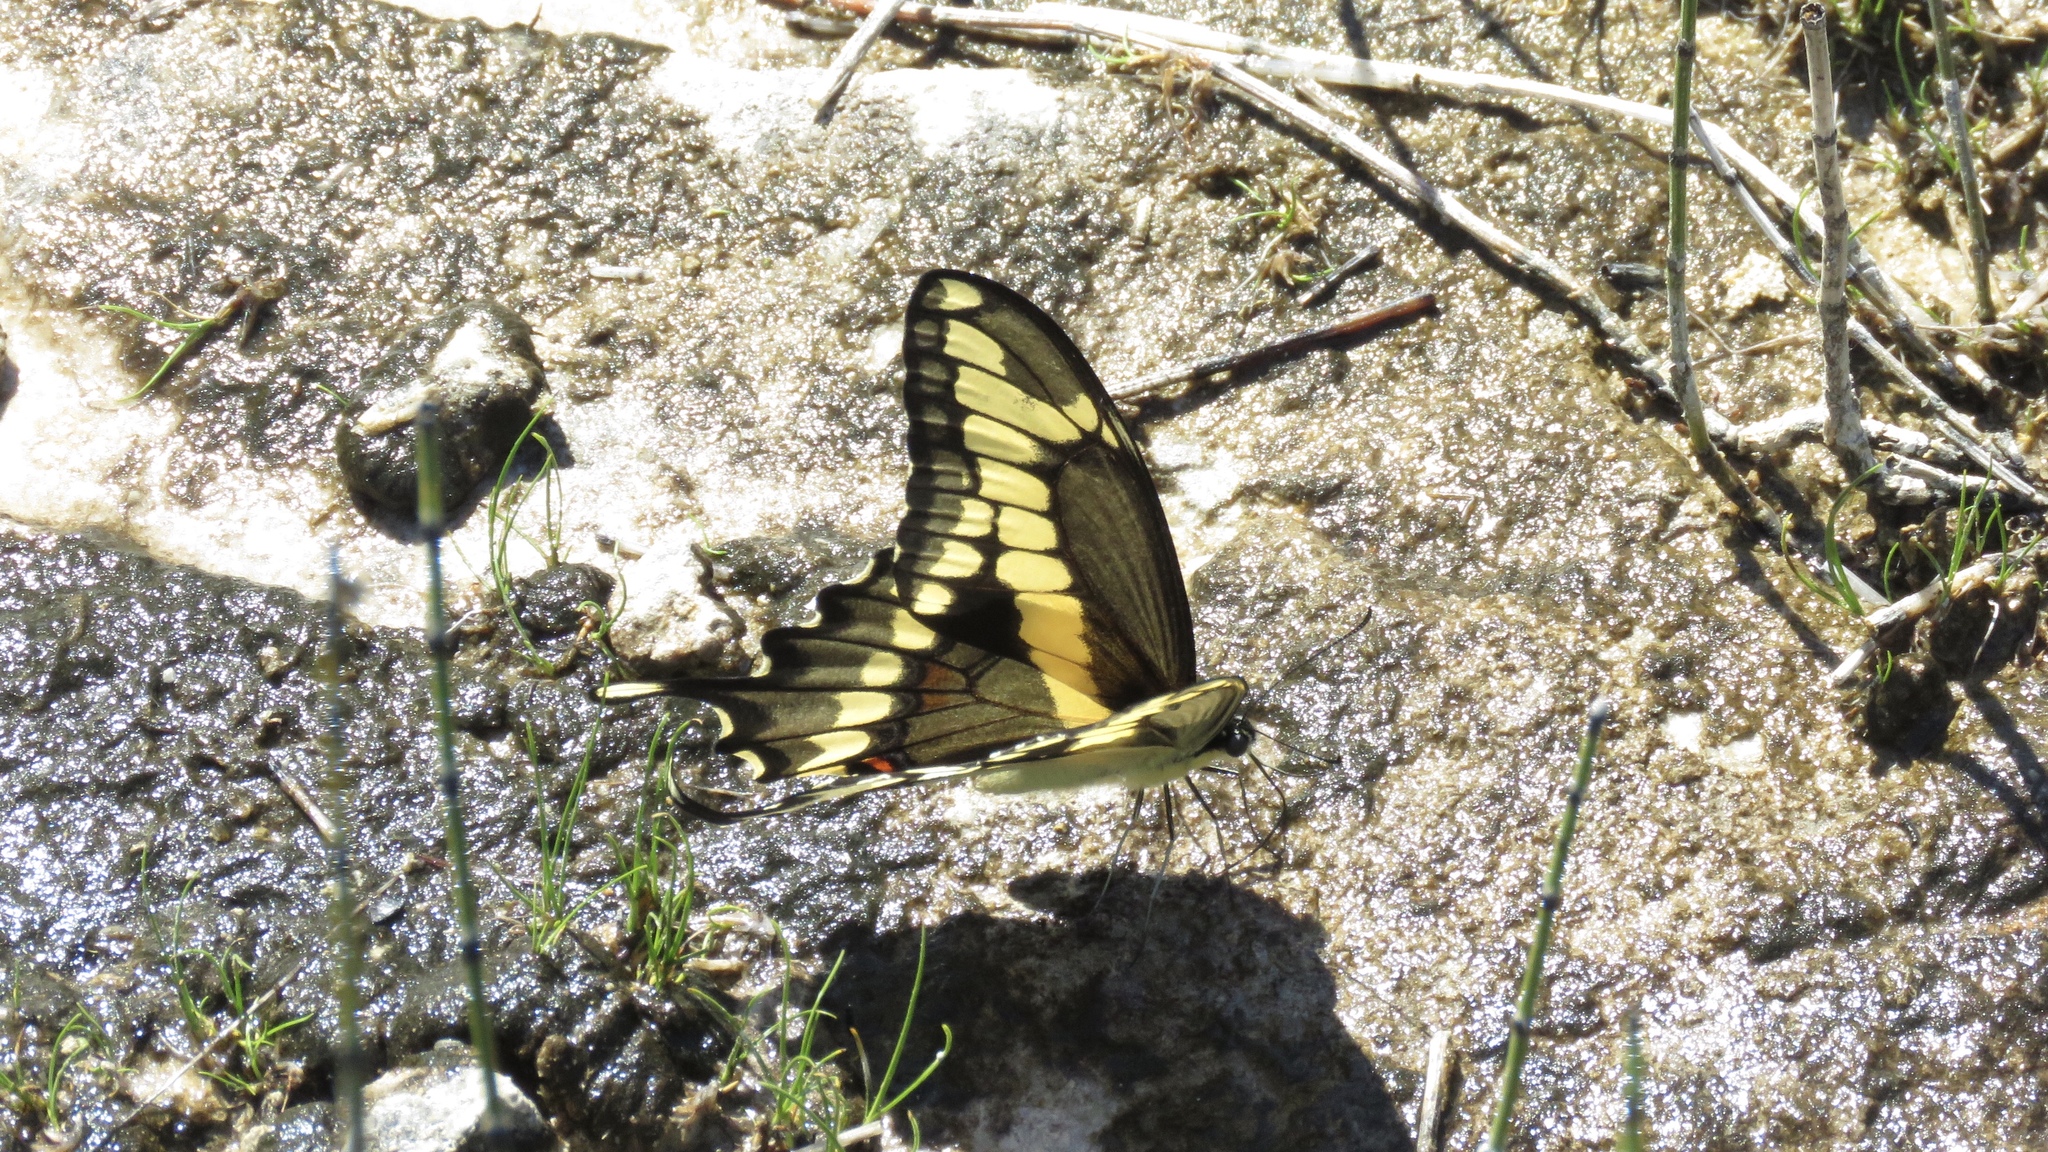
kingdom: Animalia
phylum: Arthropoda
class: Insecta
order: Lepidoptera
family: Papilionidae
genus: Papilio
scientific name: Papilio cresphontes
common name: Giant swallowtail
